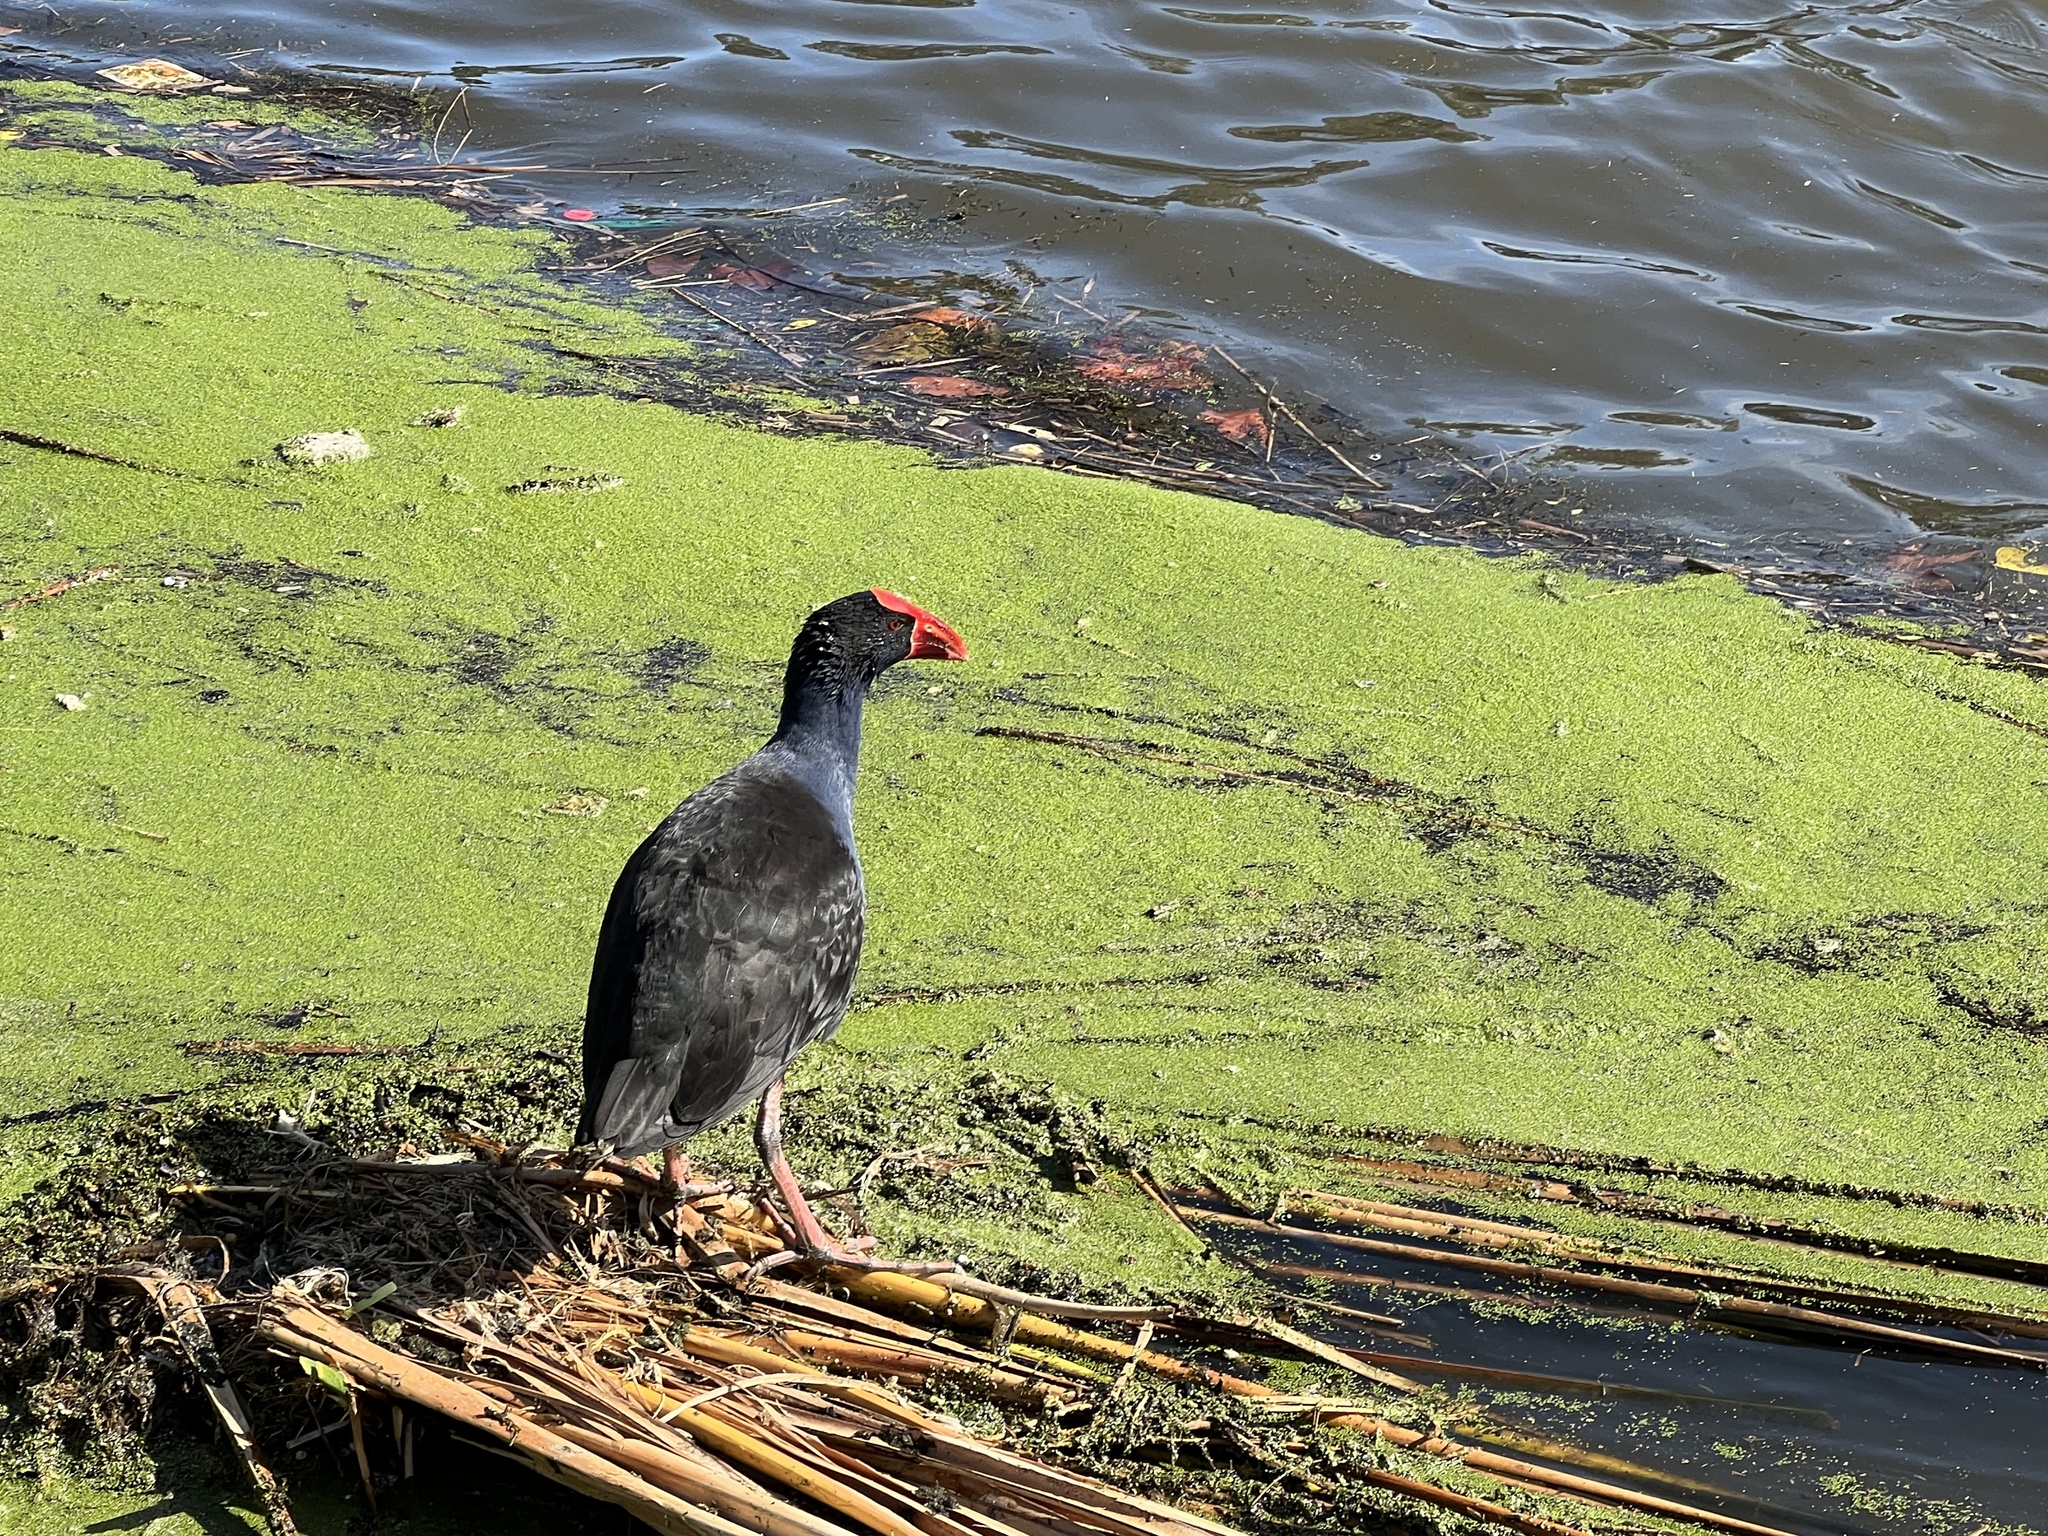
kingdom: Animalia
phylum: Chordata
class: Aves
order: Gruiformes
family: Rallidae
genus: Porphyrio
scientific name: Porphyrio melanotus
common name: Australasian swamphen
